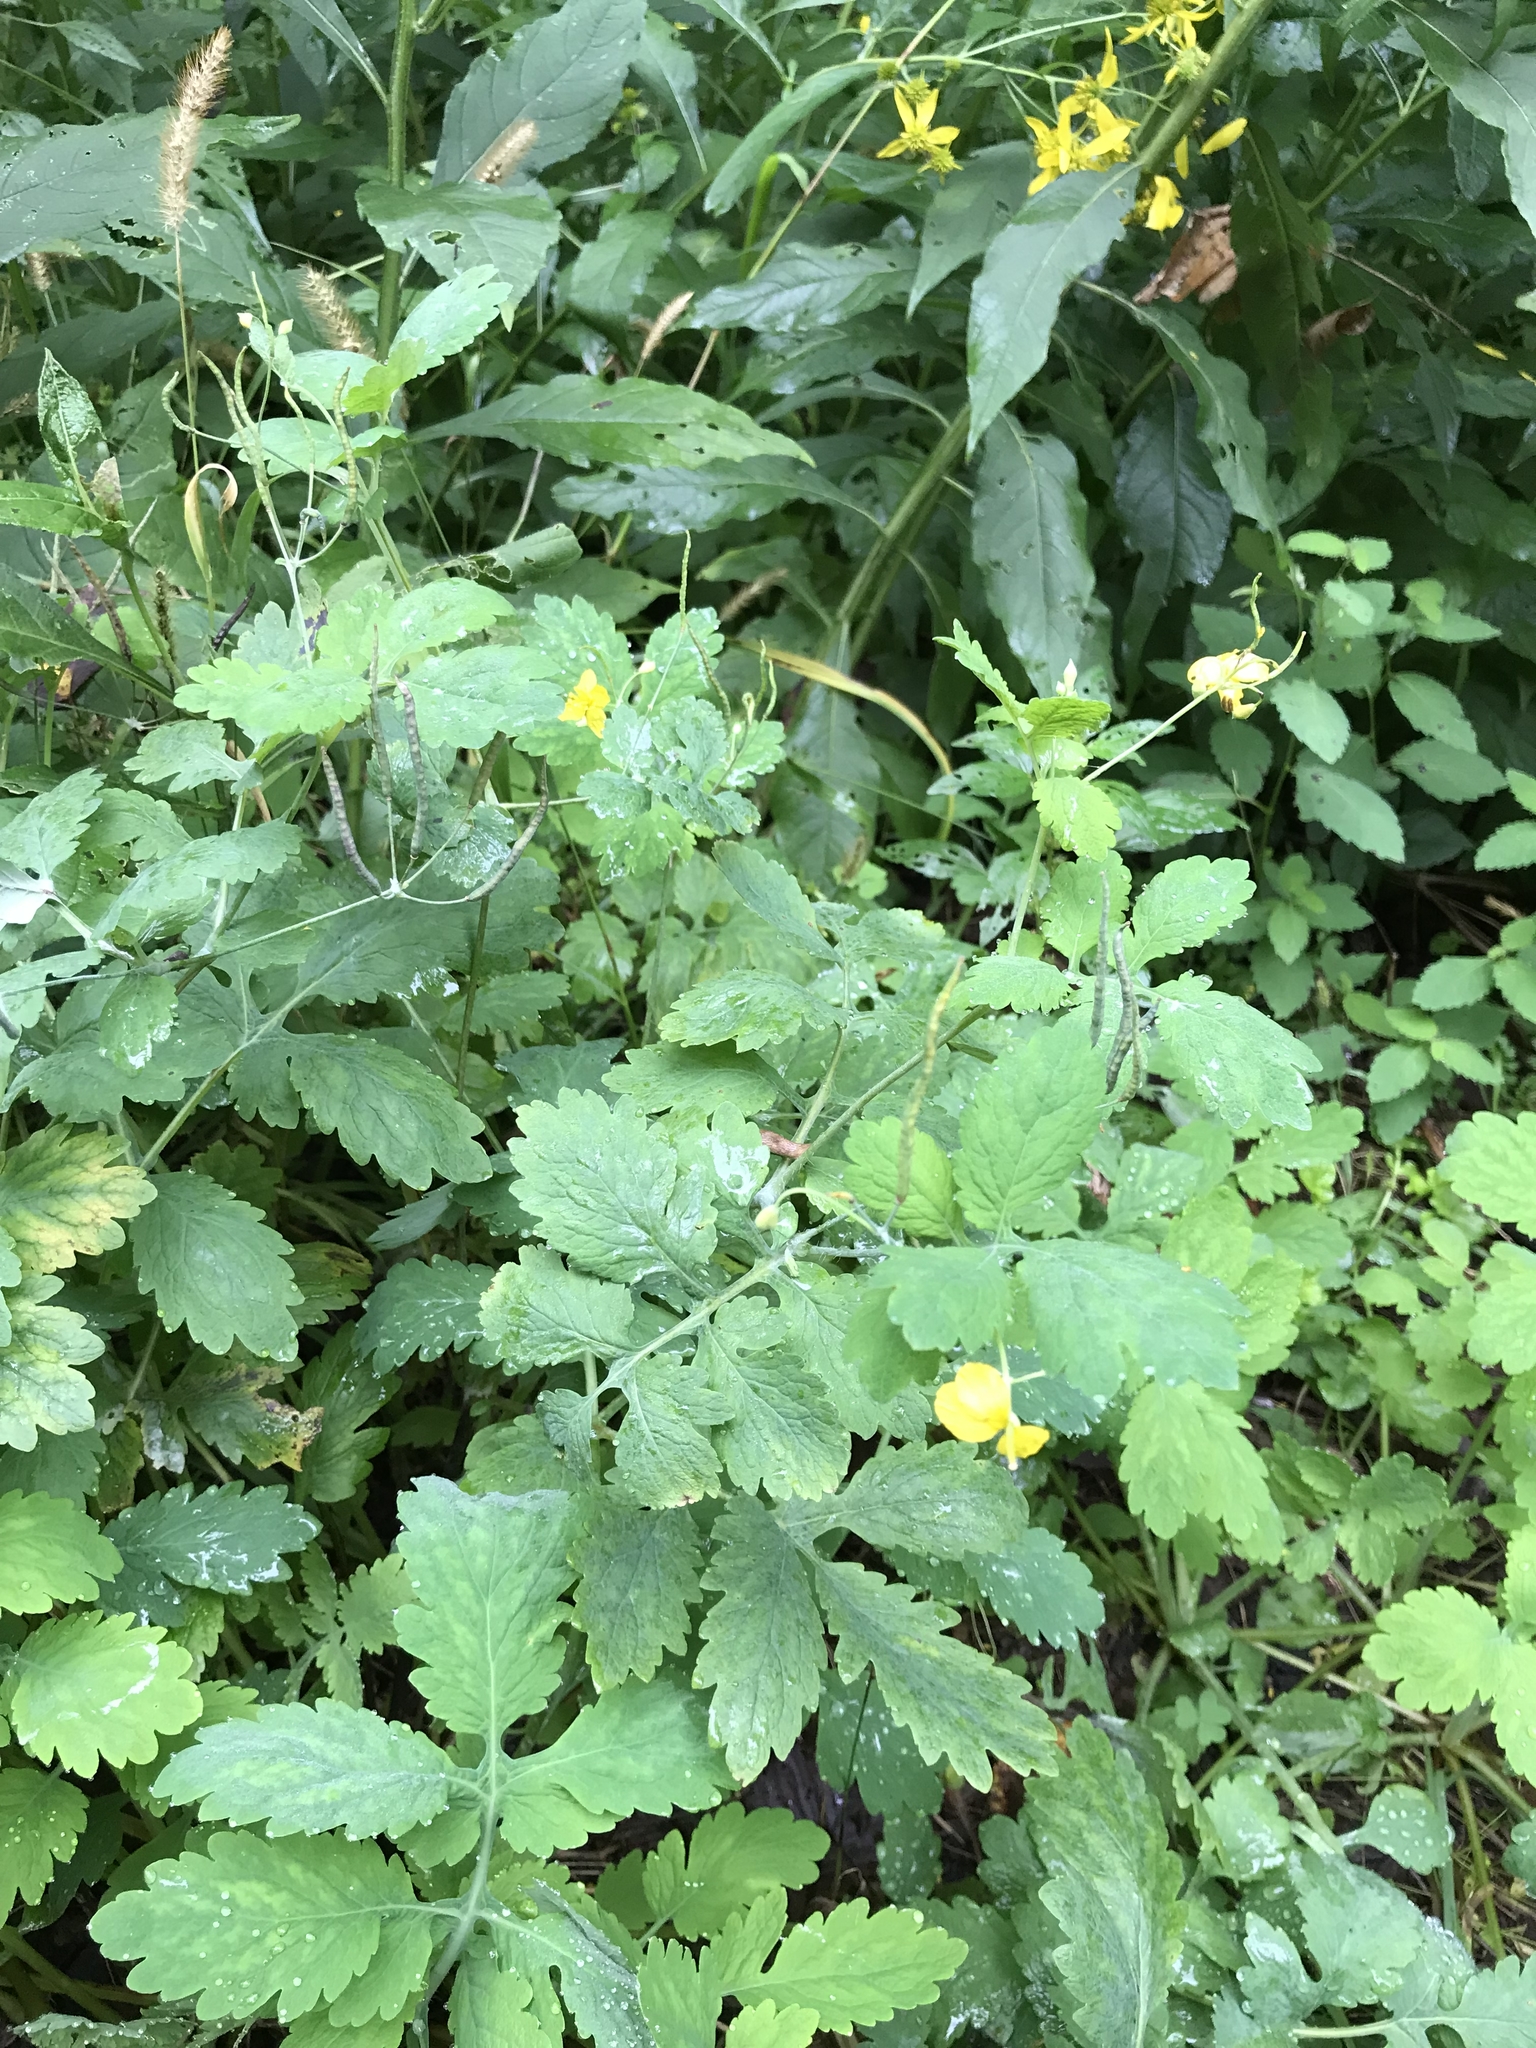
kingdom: Plantae
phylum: Tracheophyta
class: Magnoliopsida
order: Ranunculales
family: Papaveraceae
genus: Chelidonium
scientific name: Chelidonium majus
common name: Greater celandine
